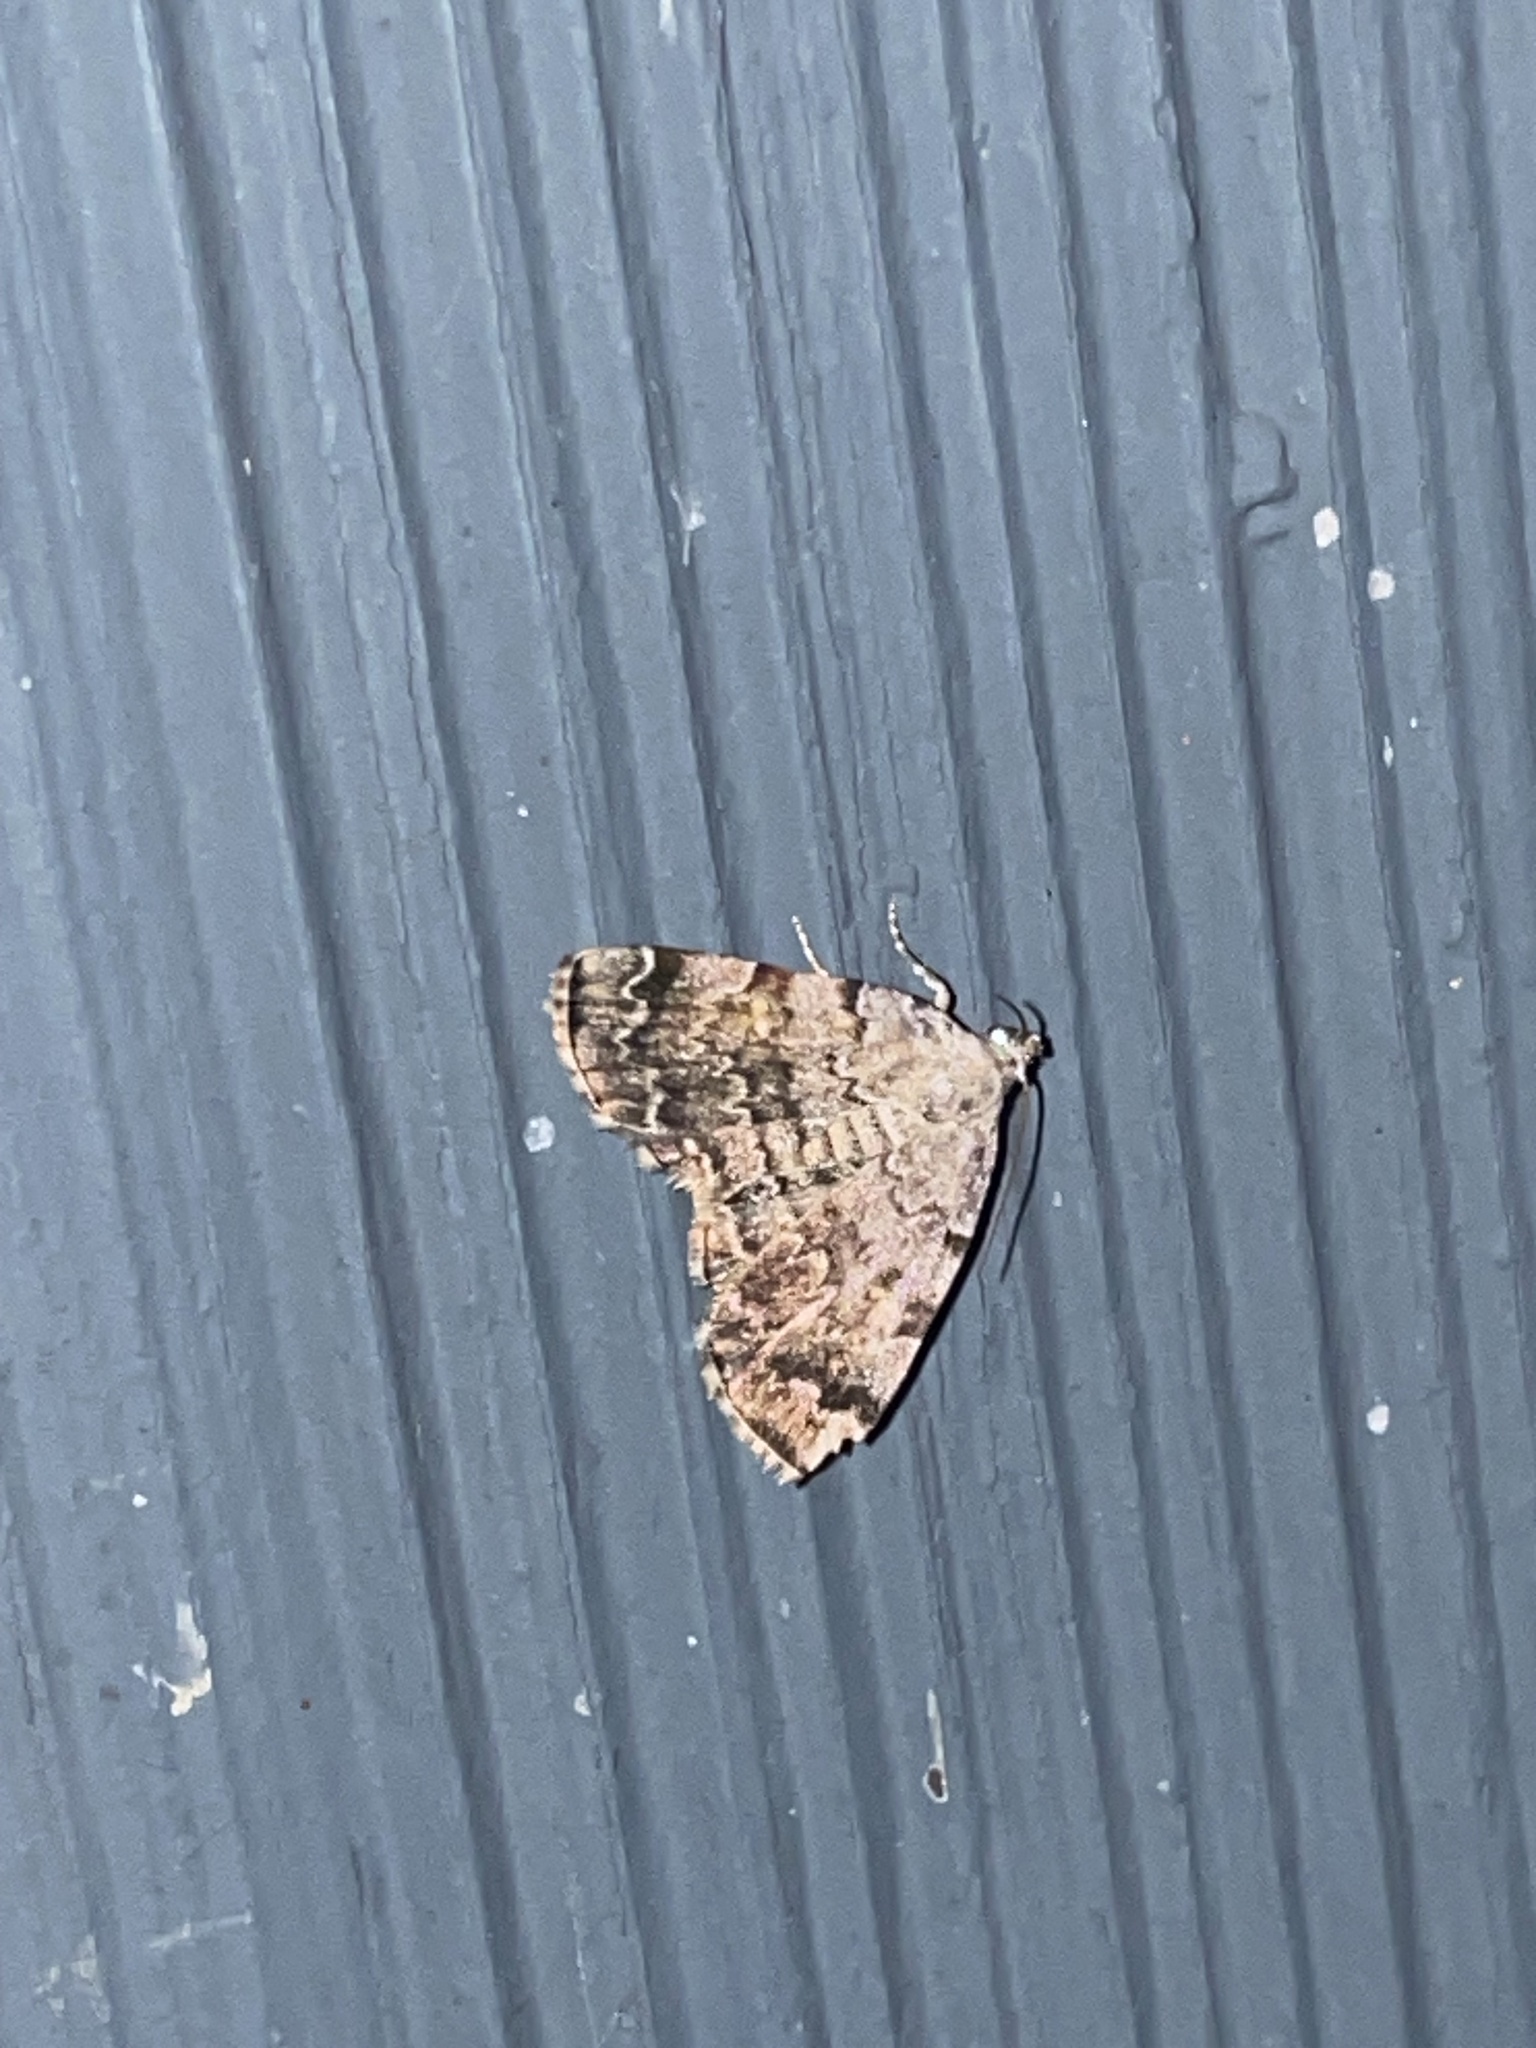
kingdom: Animalia
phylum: Arthropoda
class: Insecta
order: Lepidoptera
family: Erebidae
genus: Idia
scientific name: Idia americalis
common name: American idia moth
